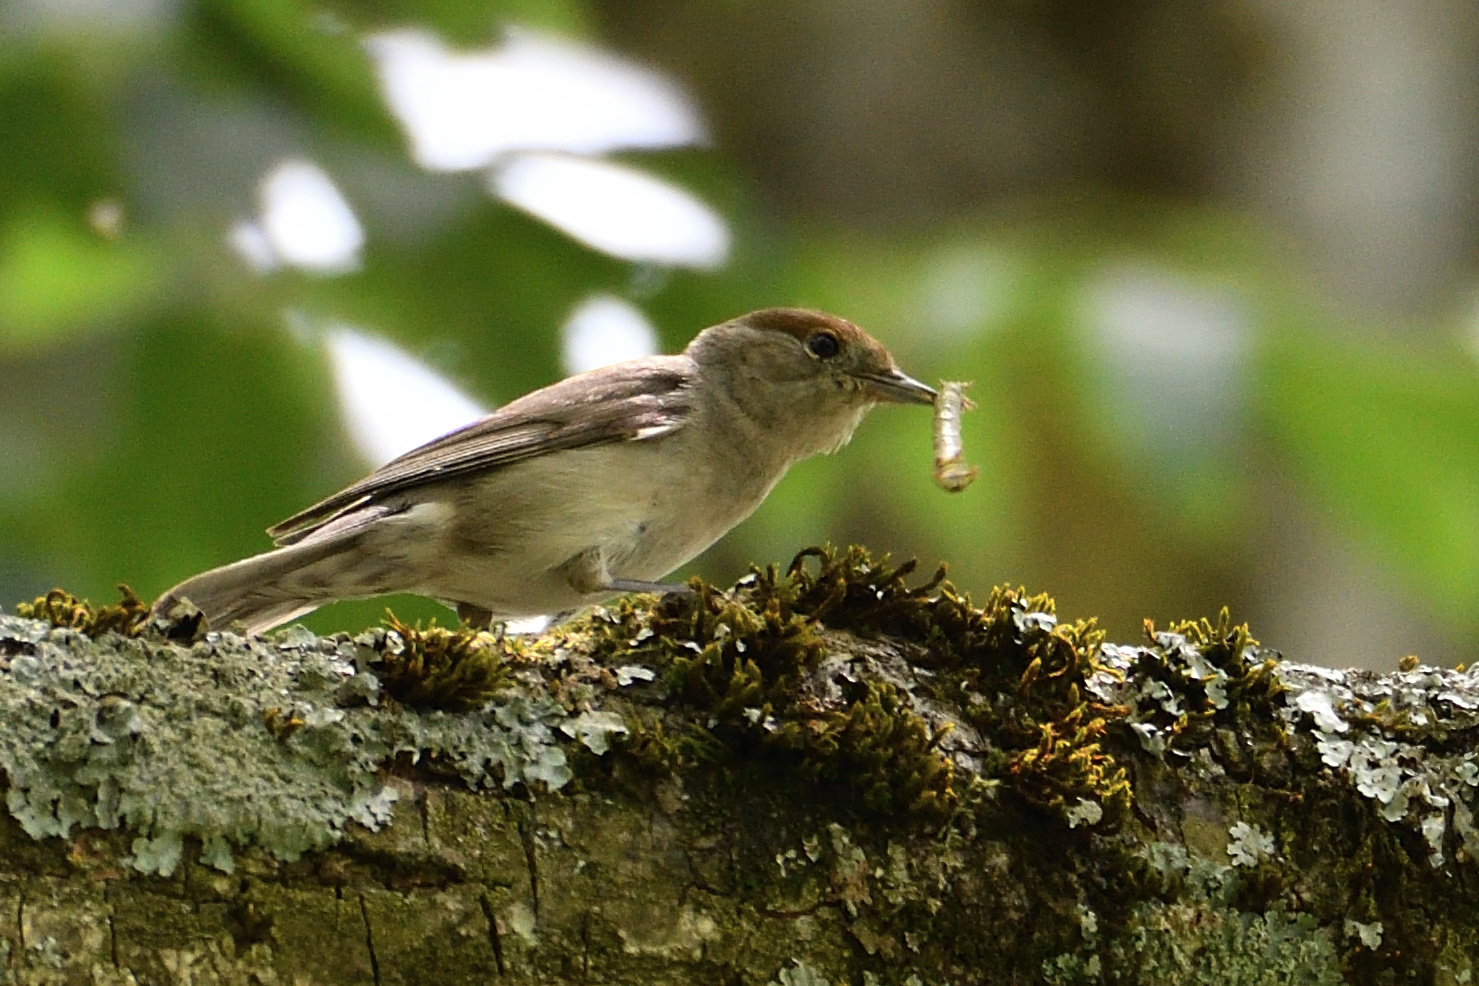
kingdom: Animalia
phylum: Chordata
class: Aves
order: Passeriformes
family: Sylviidae
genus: Sylvia
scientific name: Sylvia atricapilla
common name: Eurasian blackcap
